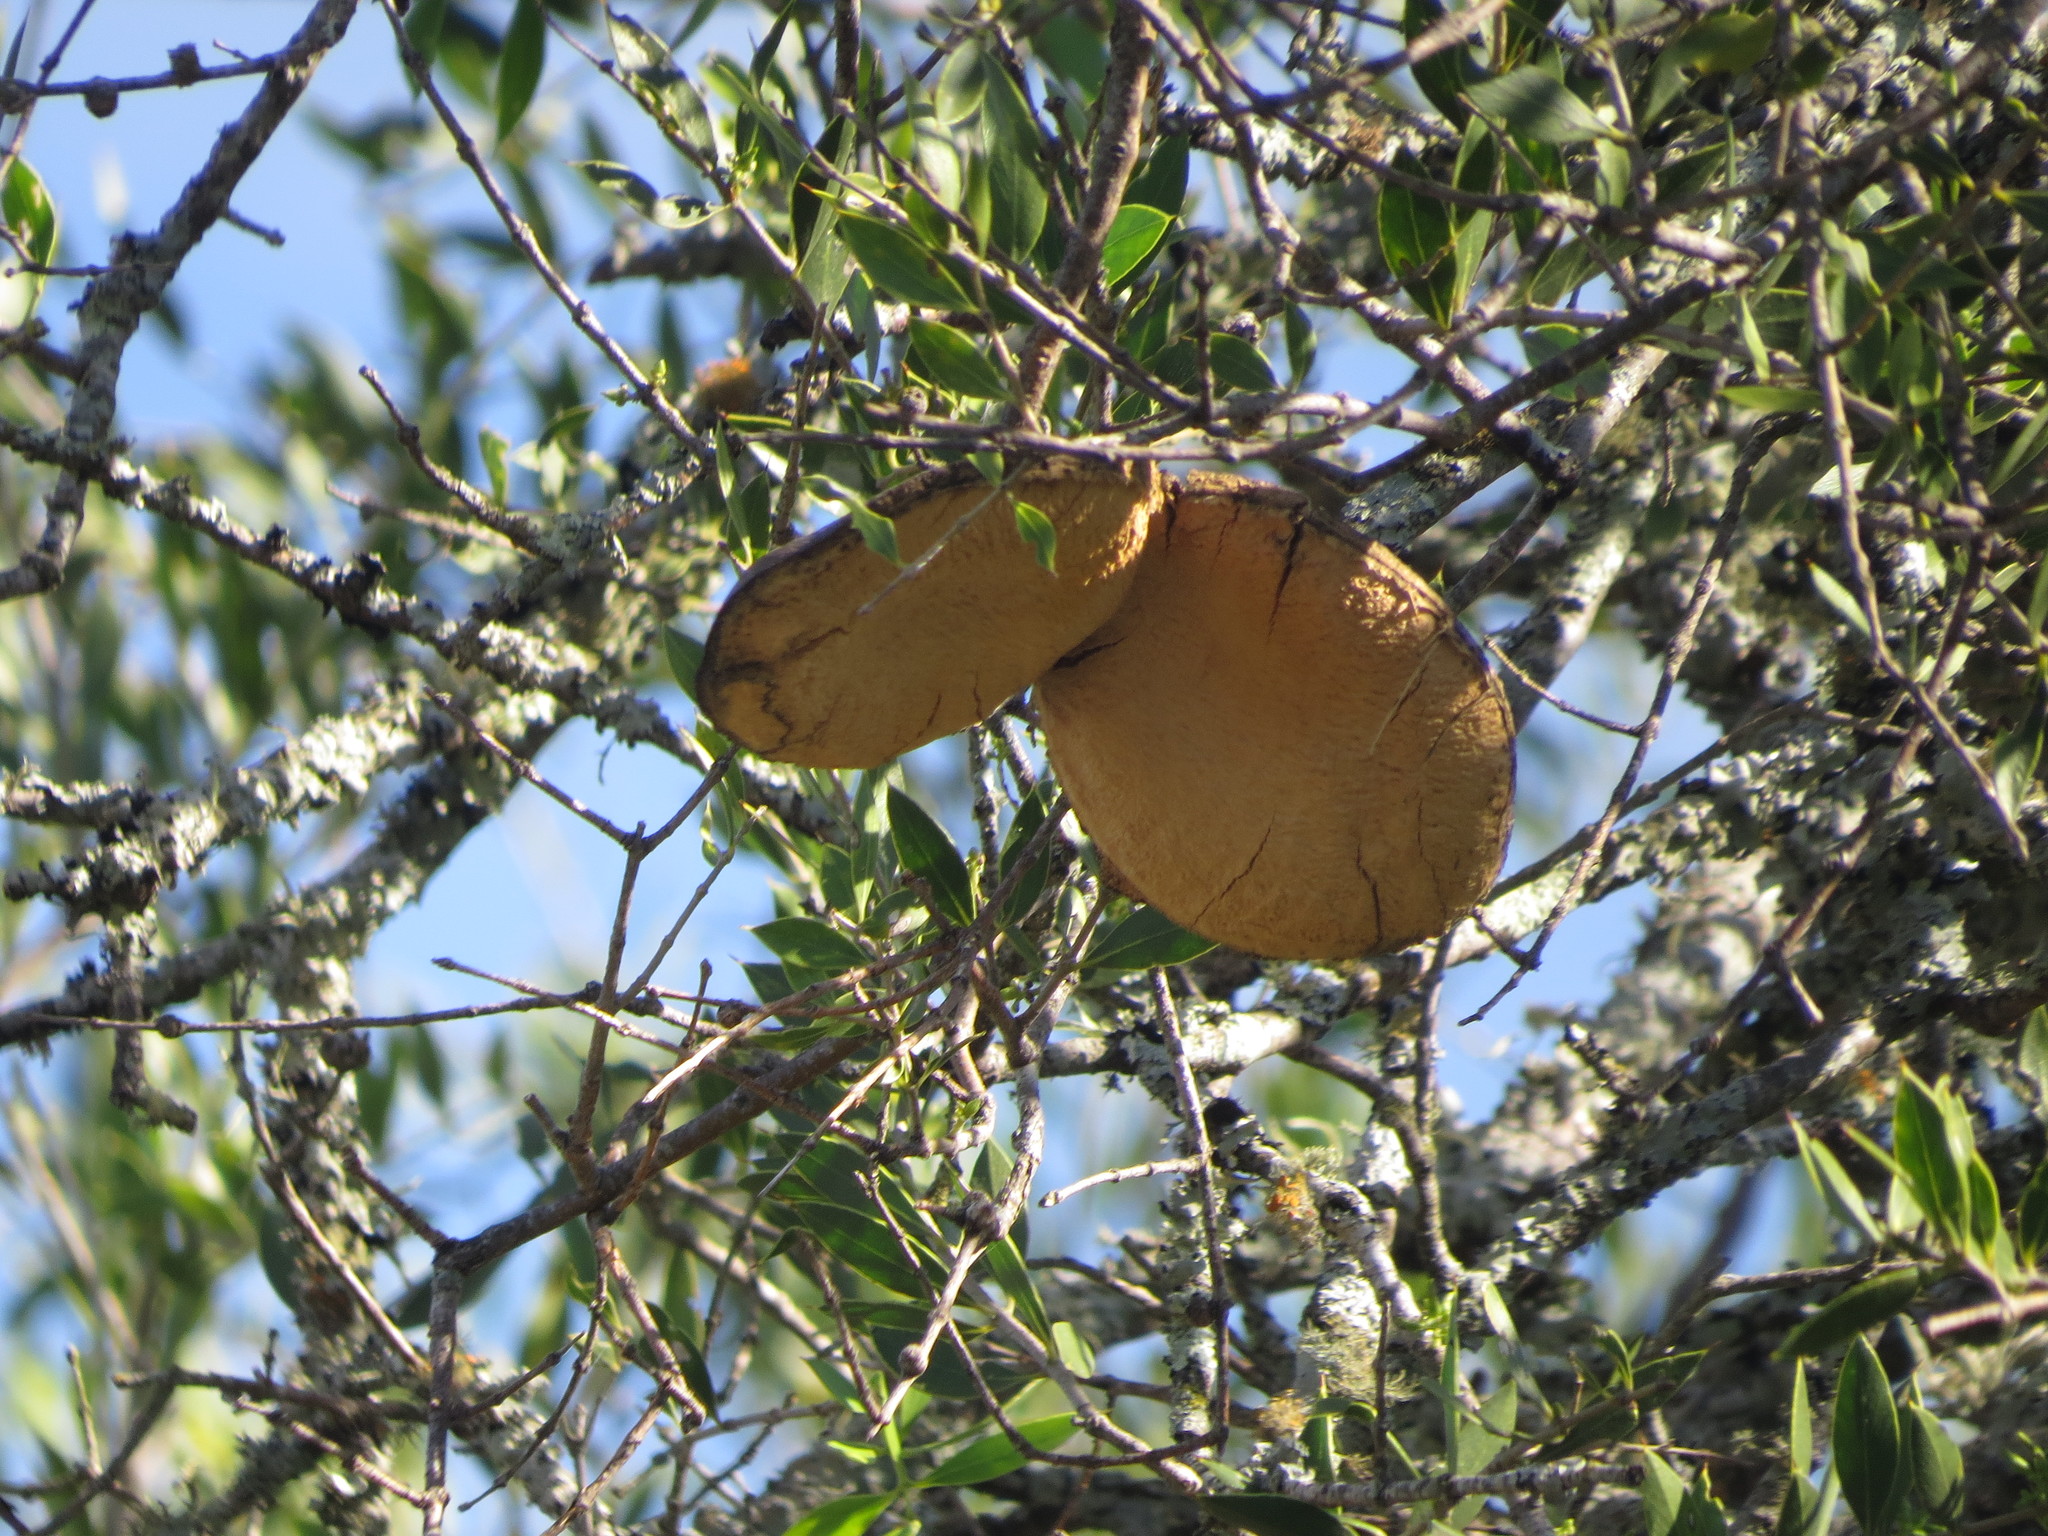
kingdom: Plantae
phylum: Tracheophyta
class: Magnoliopsida
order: Gentianales
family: Apocynaceae
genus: Aspidosperma
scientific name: Aspidosperma quebracho-blanco
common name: White quebracho
